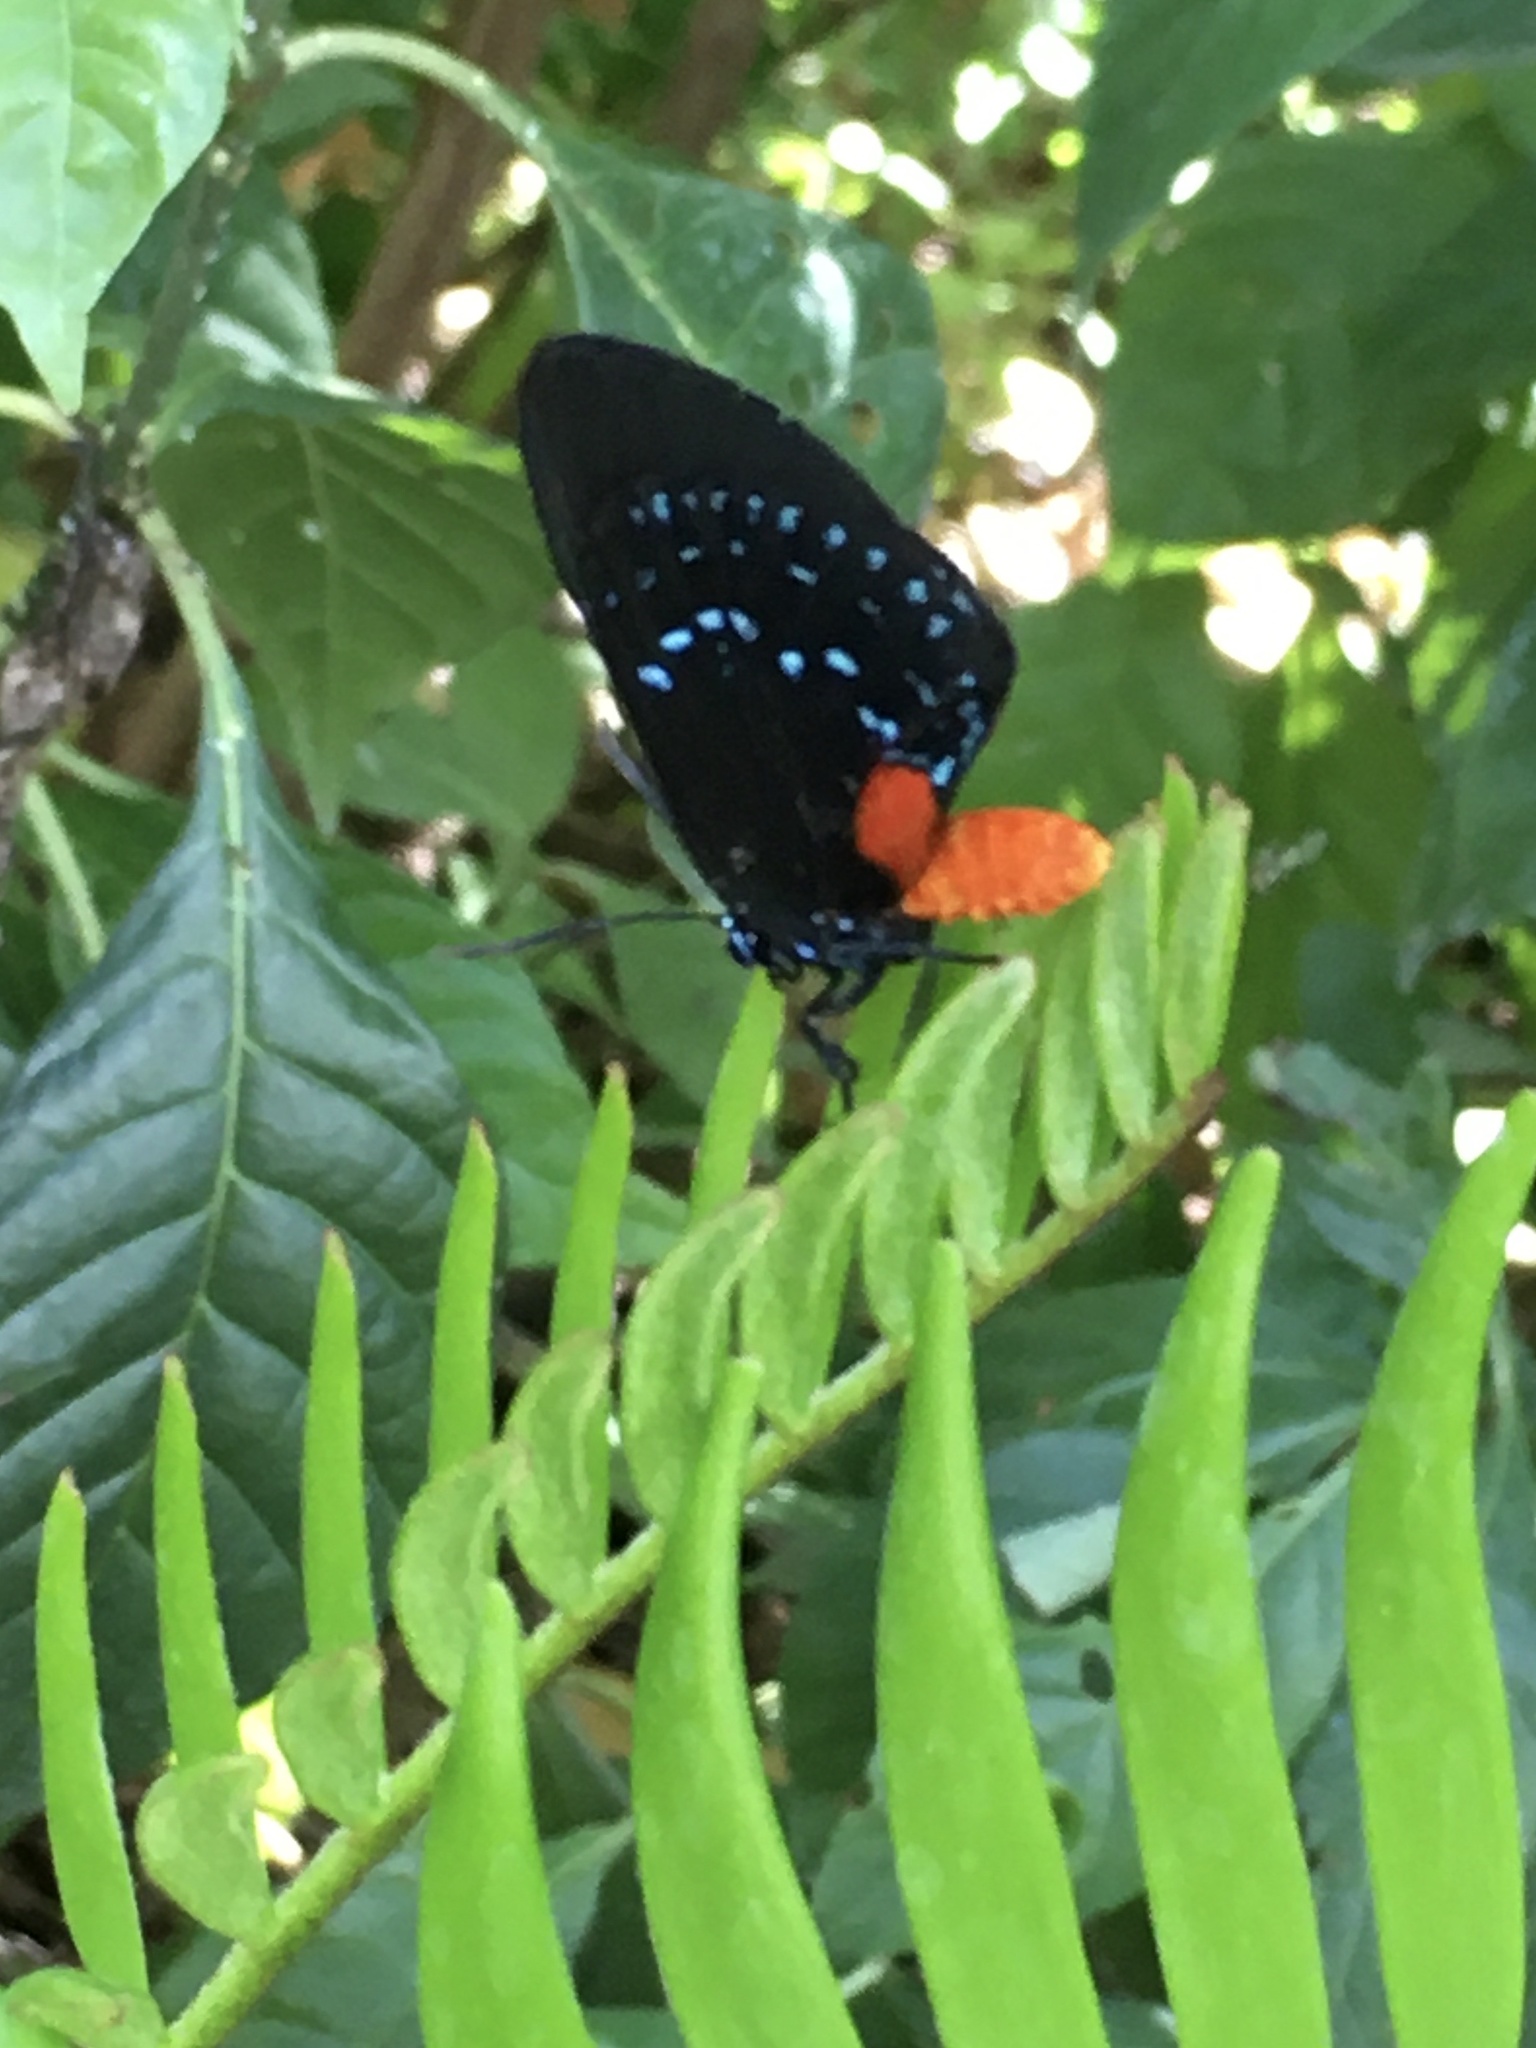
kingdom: Animalia
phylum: Arthropoda
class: Insecta
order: Lepidoptera
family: Lycaenidae
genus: Eumaeus
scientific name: Eumaeus atala
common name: Atala
